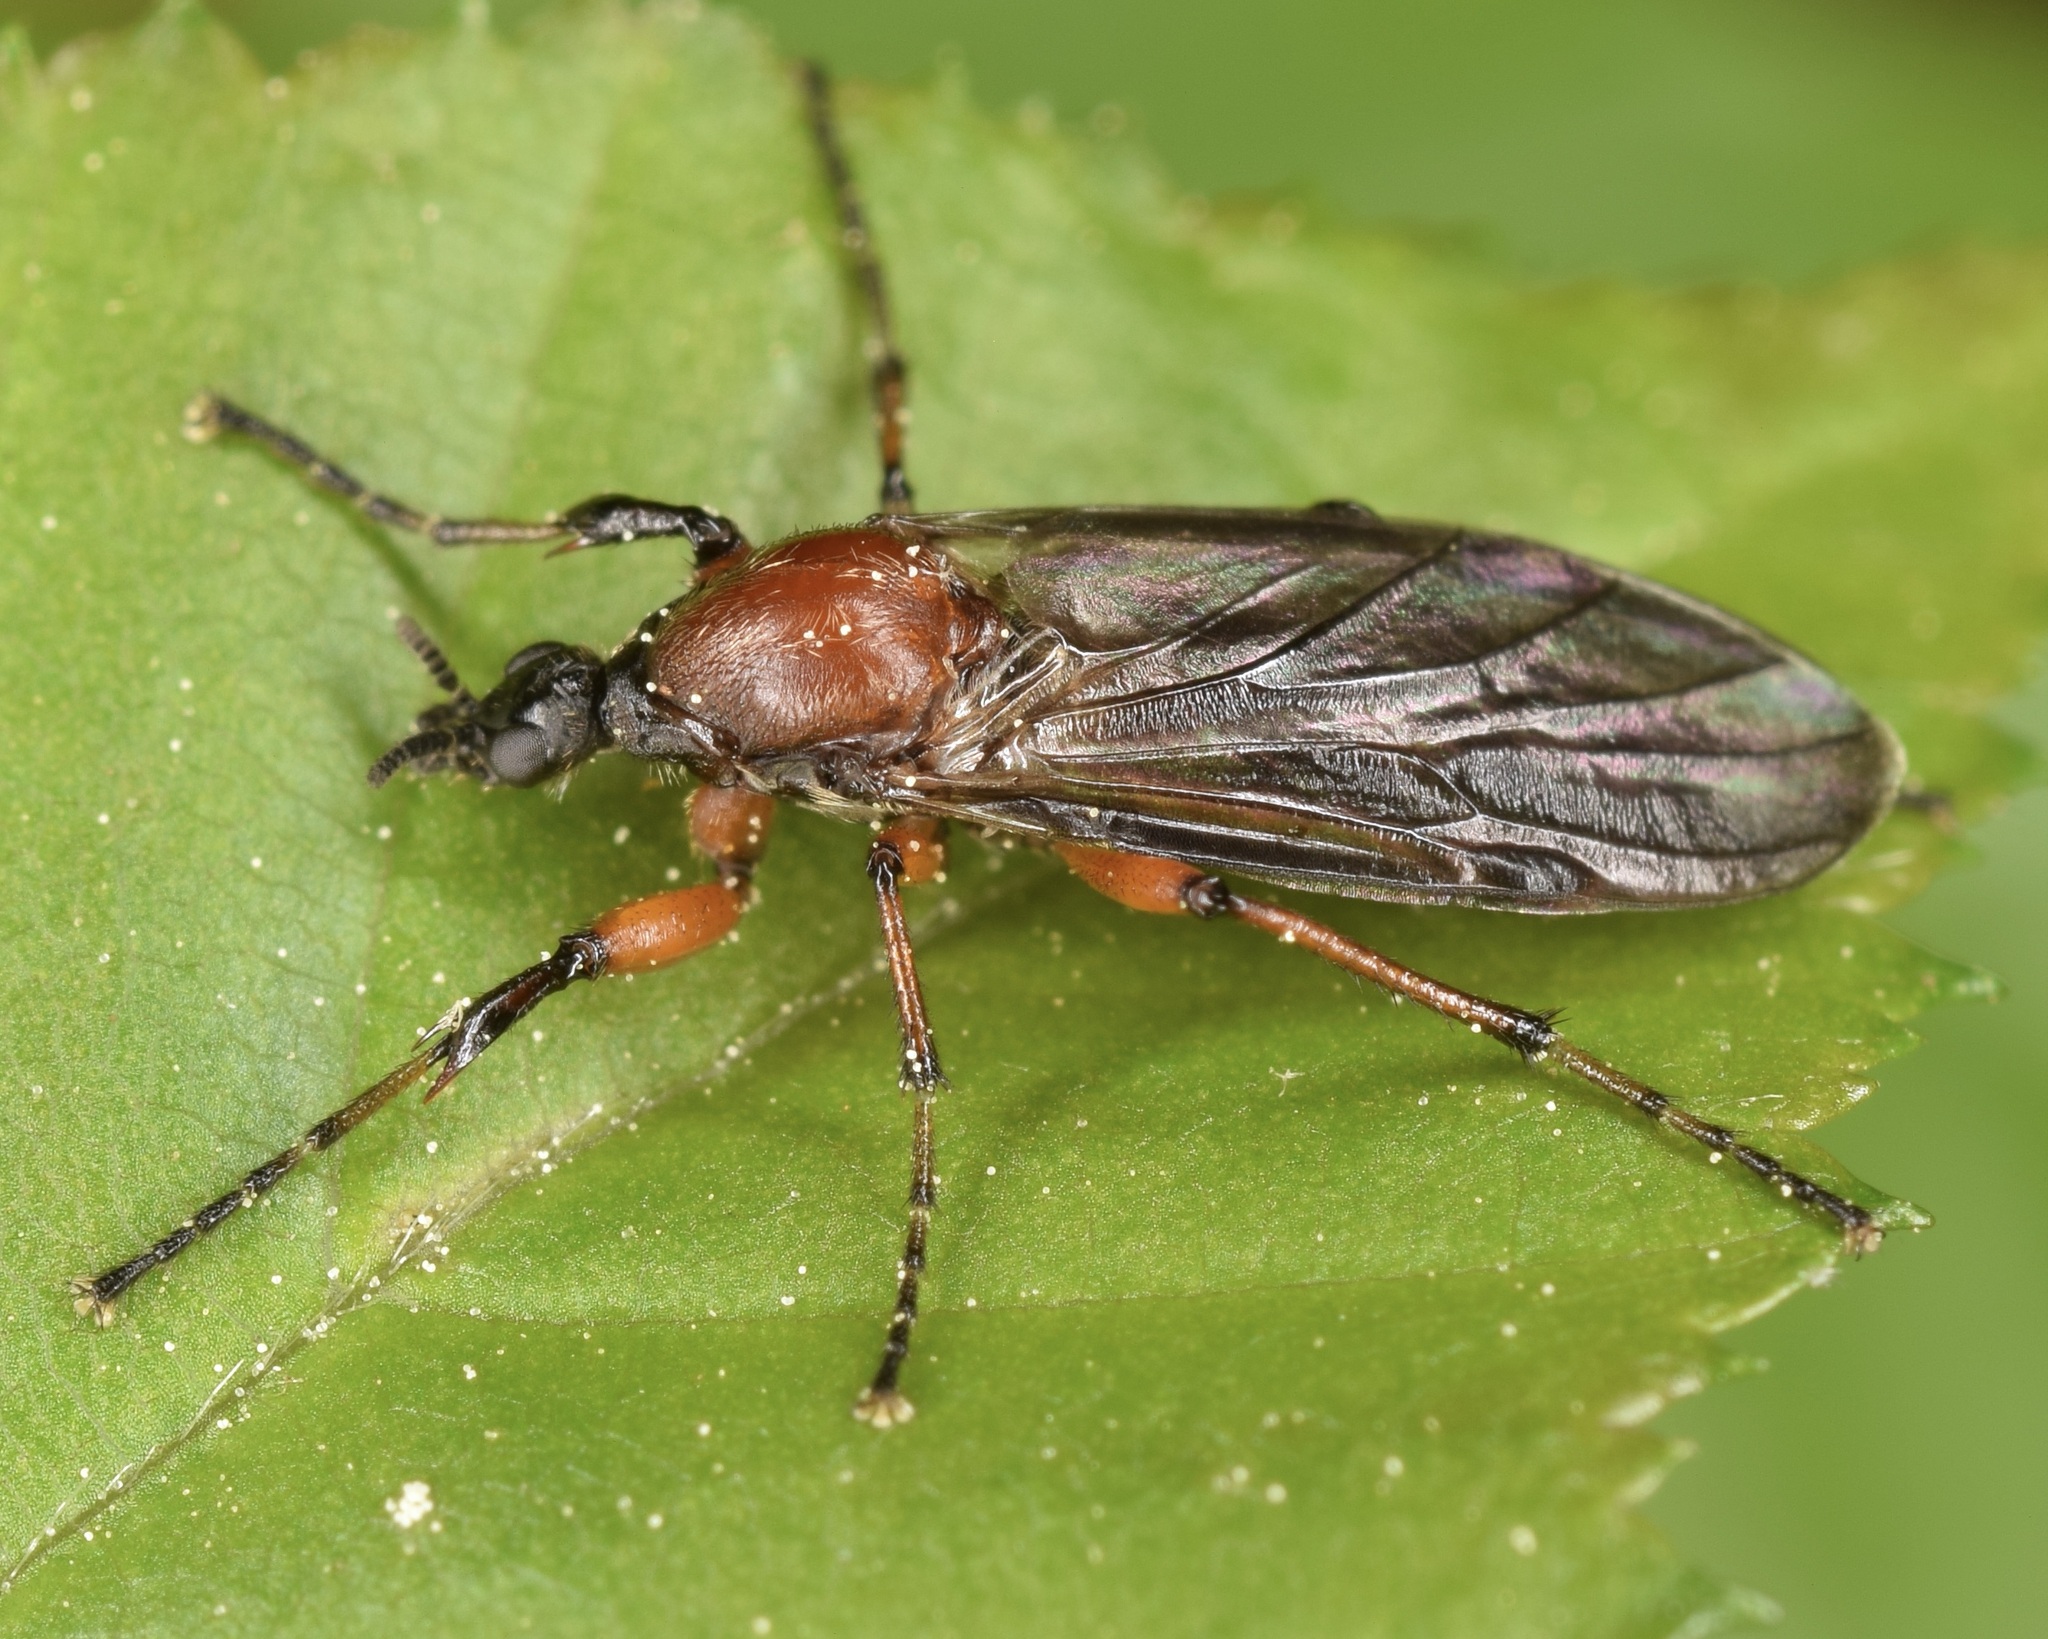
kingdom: Animalia
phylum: Arthropoda
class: Insecta
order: Diptera
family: Bibionidae
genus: Bibio
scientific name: Bibio articulatus
